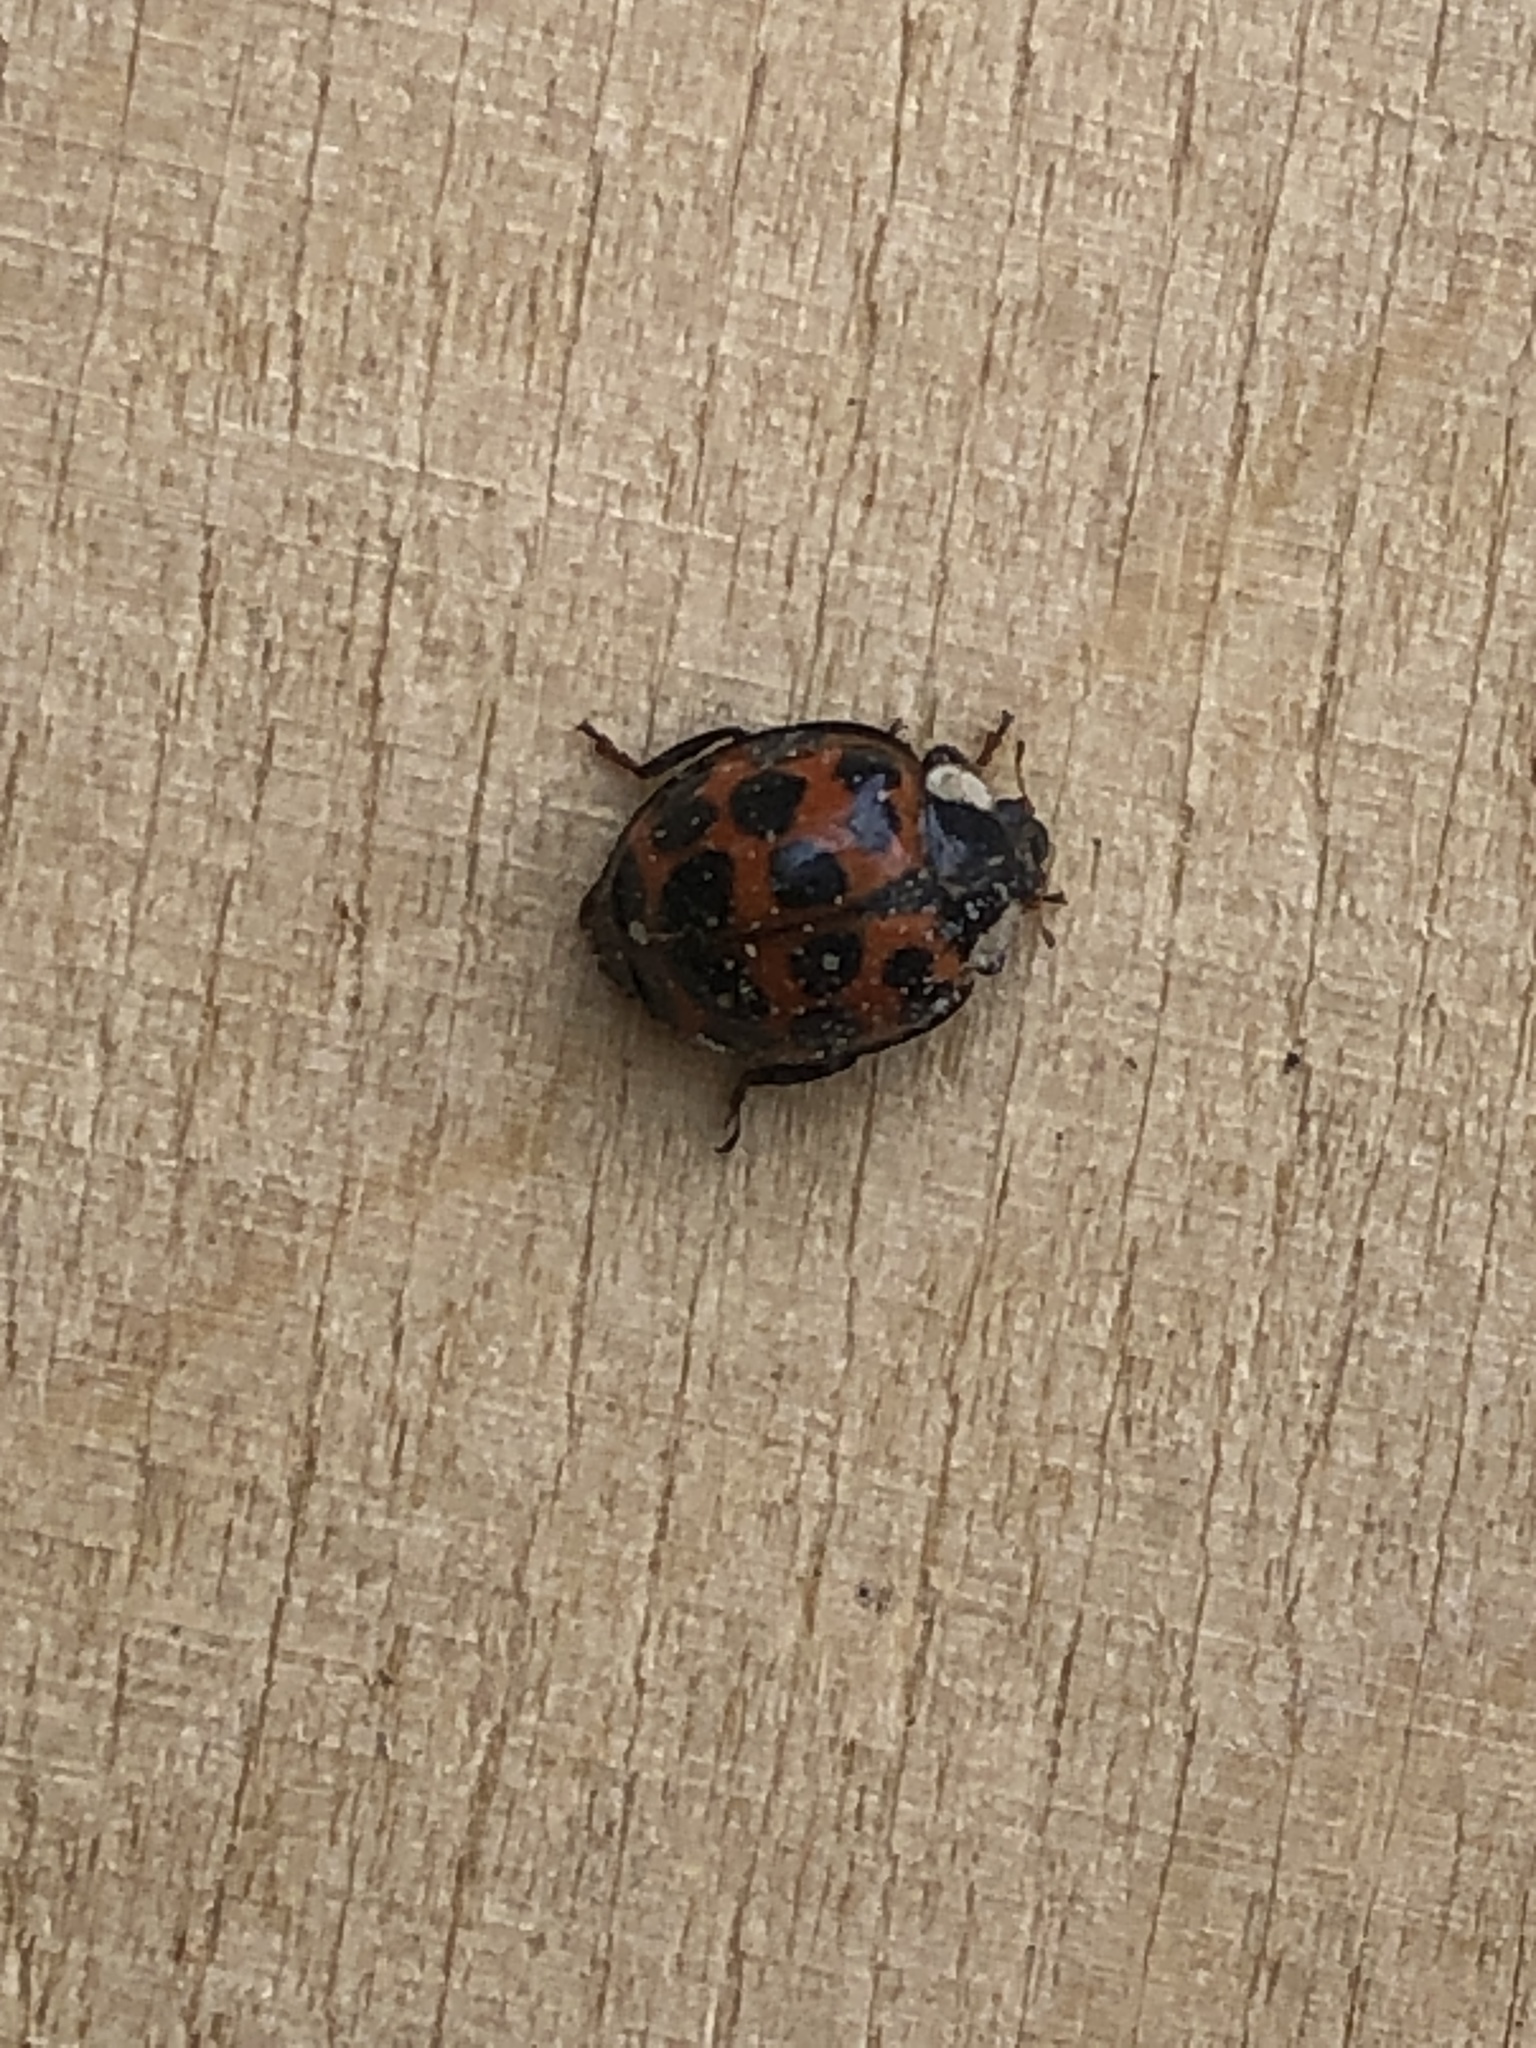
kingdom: Animalia
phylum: Arthropoda
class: Insecta
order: Coleoptera
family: Coccinellidae
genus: Harmonia
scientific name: Harmonia axyridis
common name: Harlequin ladybird
